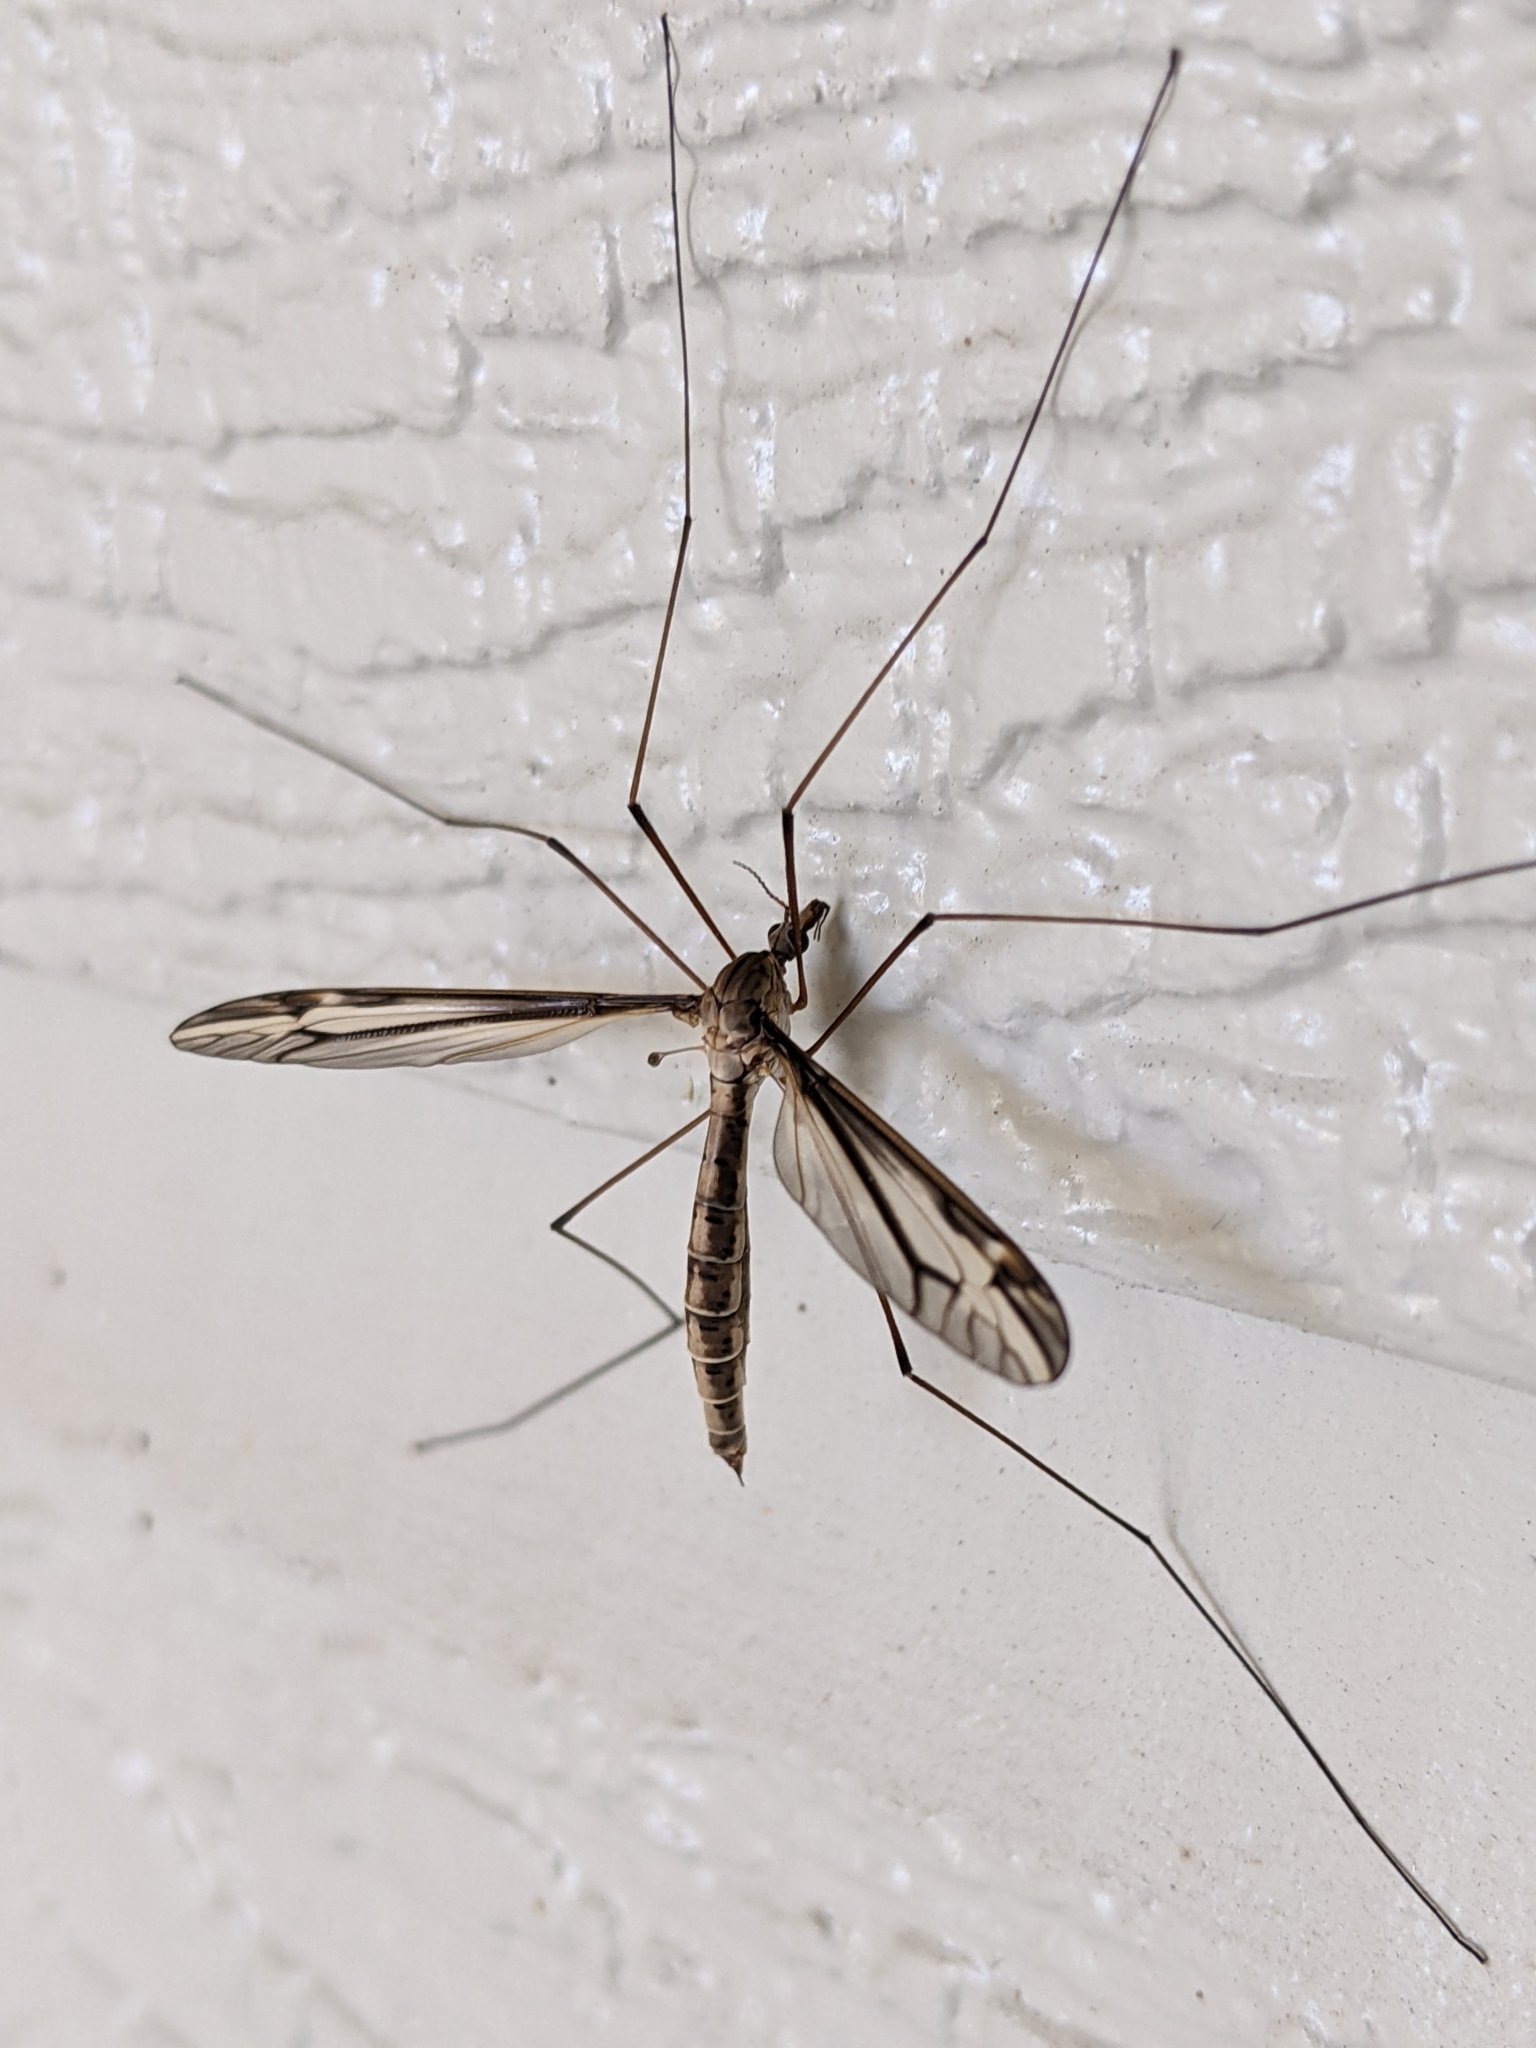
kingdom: Animalia
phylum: Arthropoda
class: Insecta
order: Diptera
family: Tipulidae
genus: Tipula
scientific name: Tipula furca
